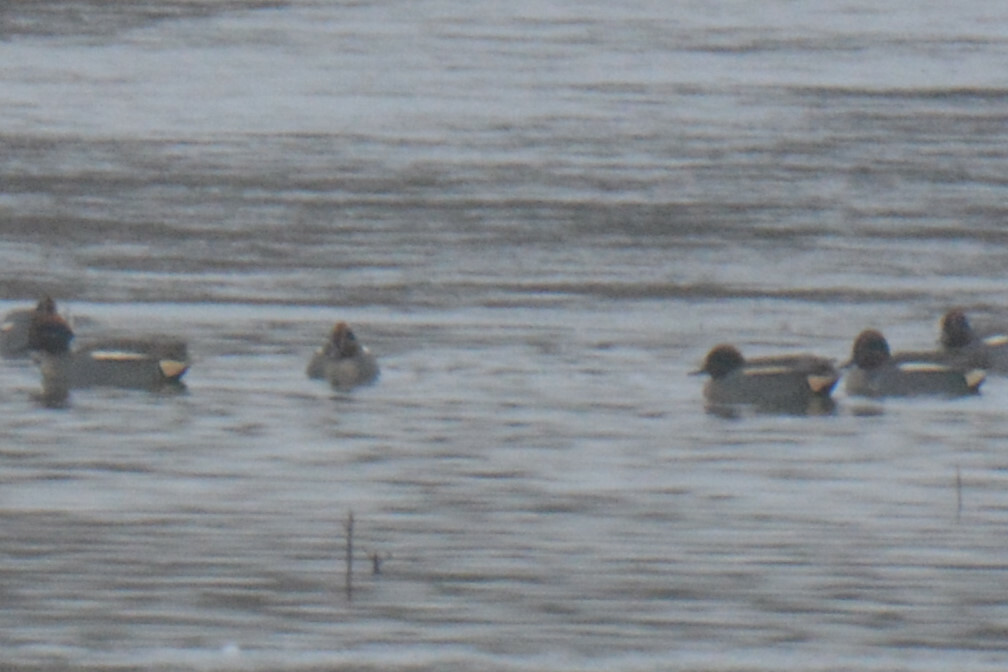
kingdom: Animalia
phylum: Chordata
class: Aves
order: Anseriformes
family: Anatidae
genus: Anas
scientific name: Anas crecca
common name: Eurasian teal
